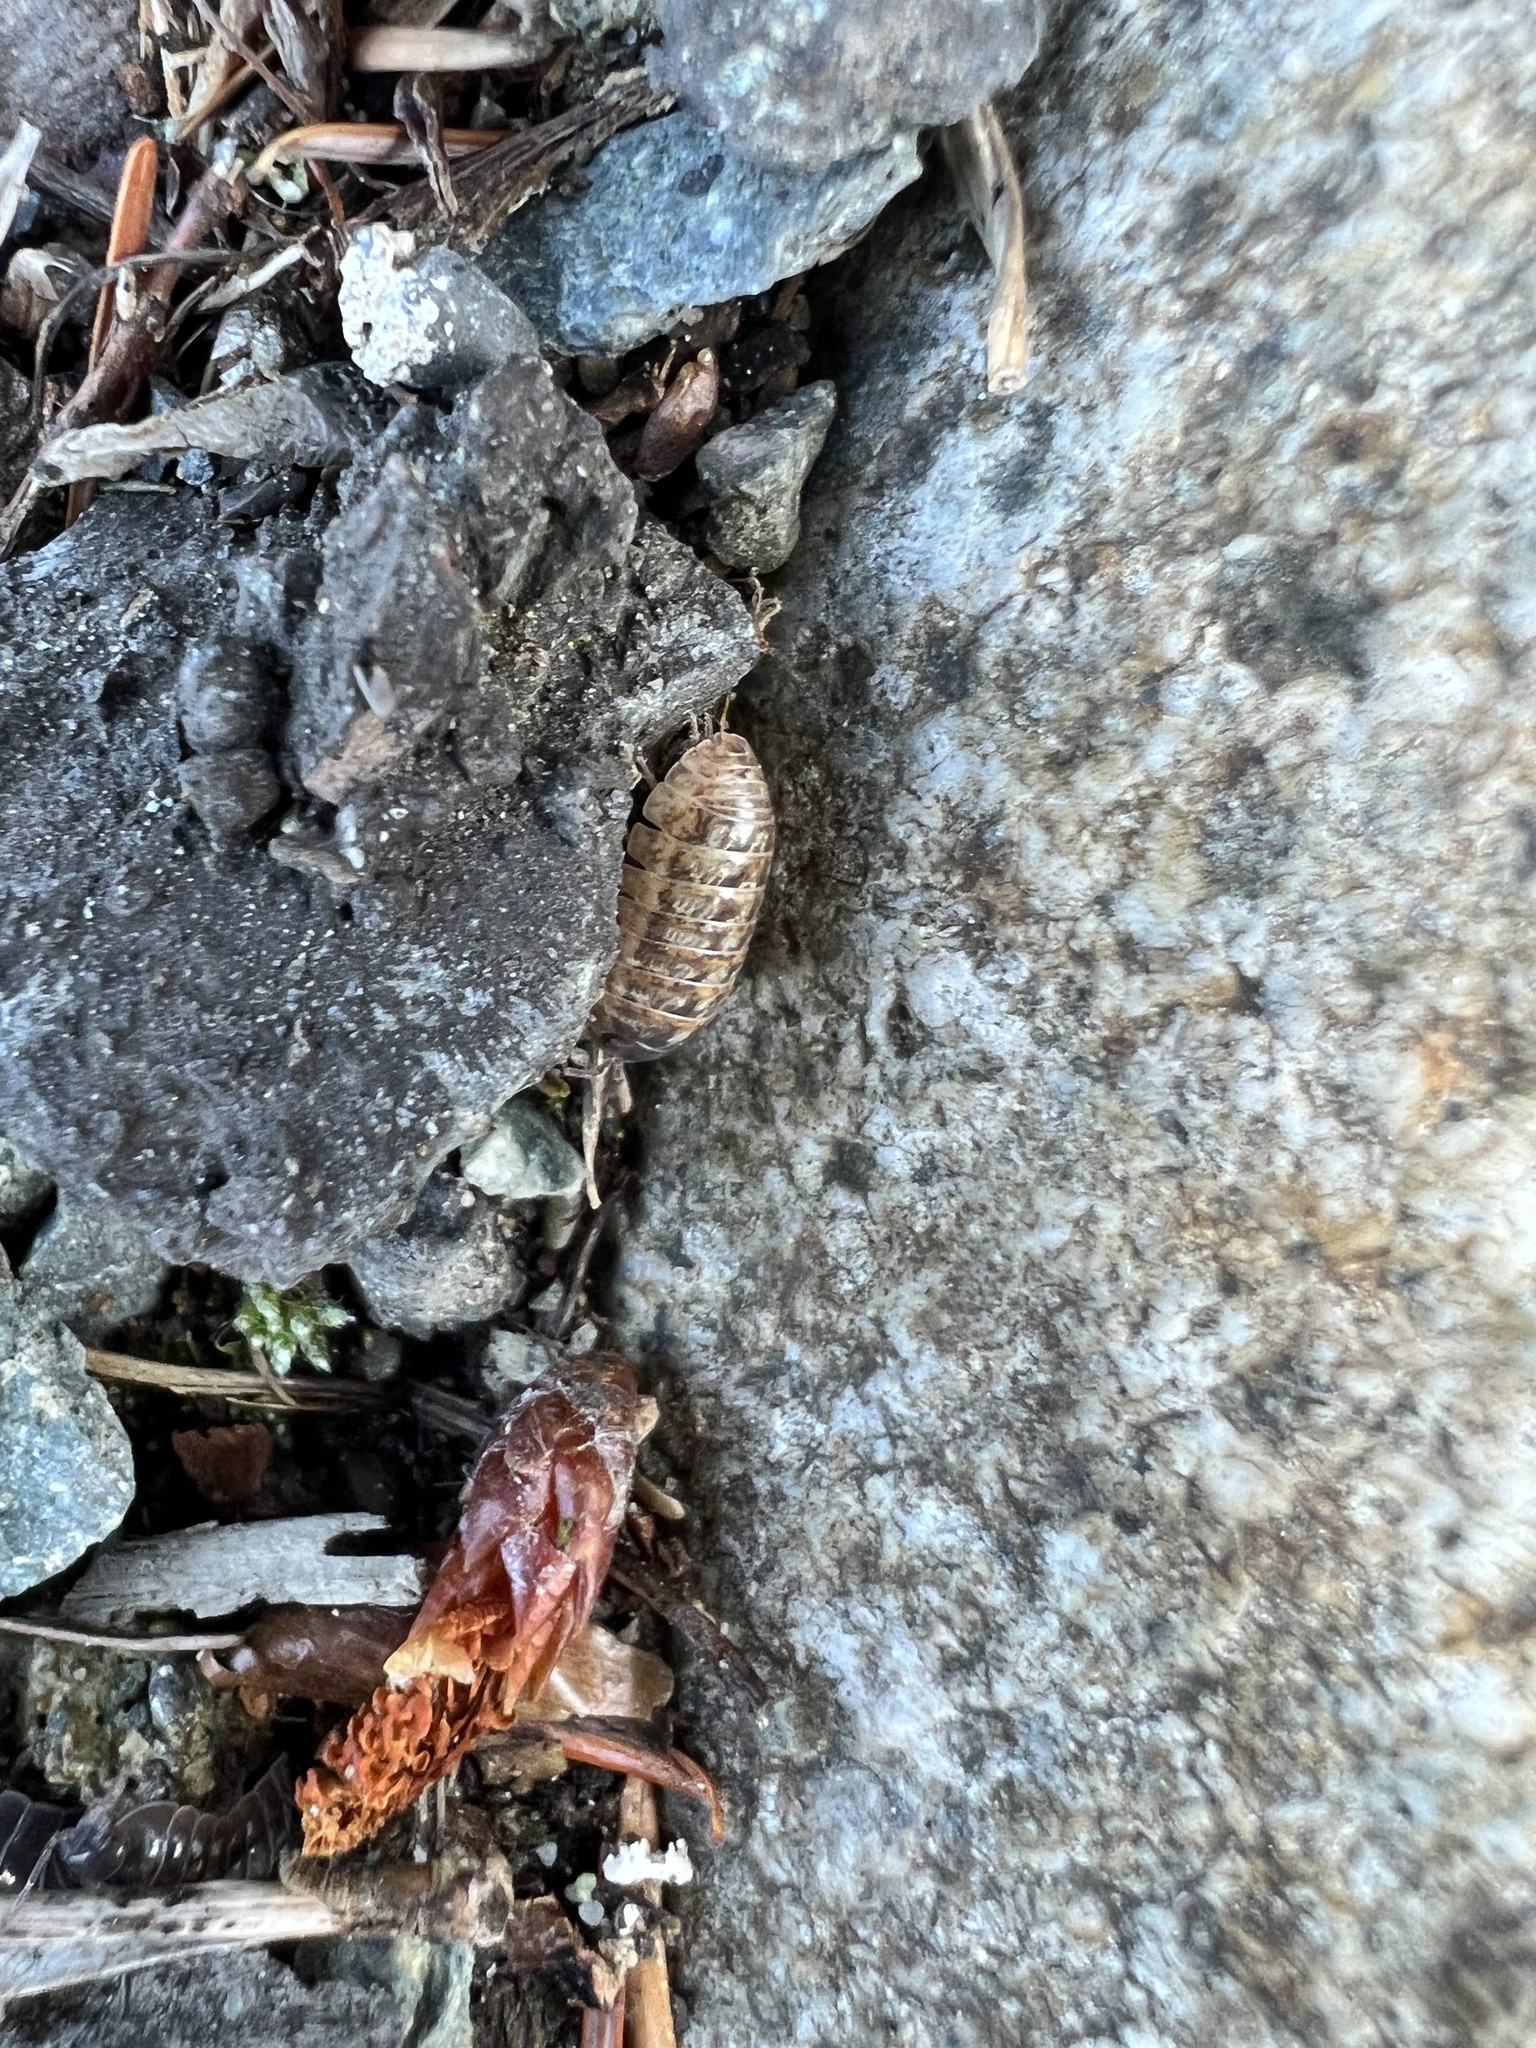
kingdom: Animalia
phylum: Arthropoda
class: Malacostraca
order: Isopoda
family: Armadillidiidae
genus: Armadillidium
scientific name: Armadillidium vulgare
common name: Common pill woodlouse
